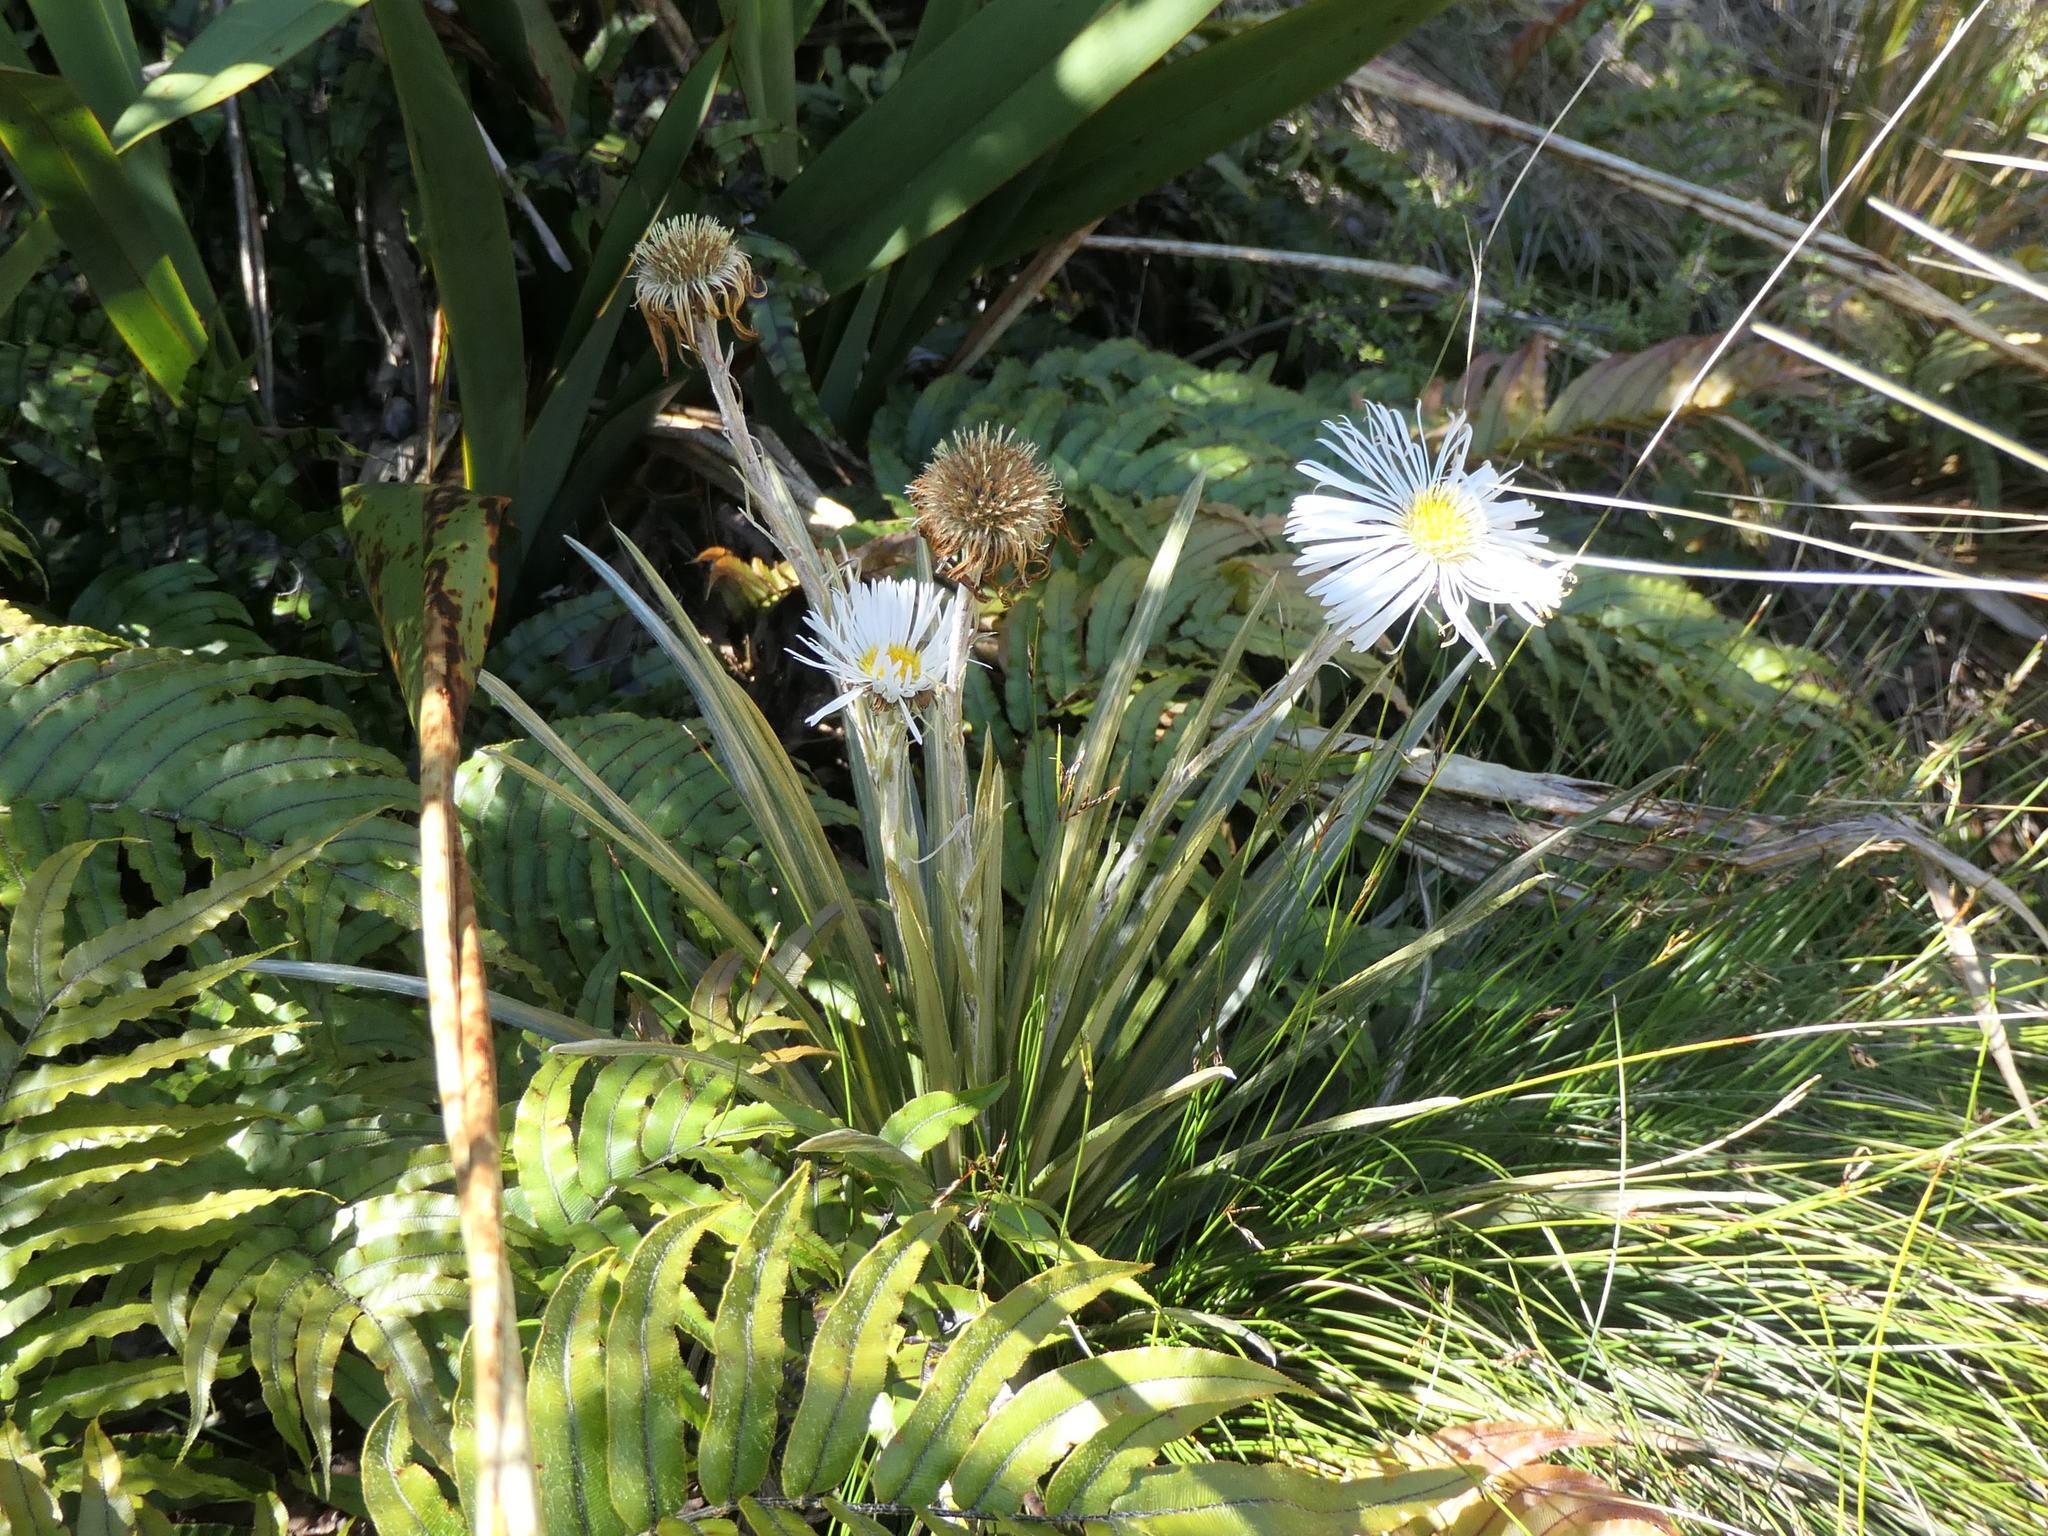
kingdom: Plantae
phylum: Tracheophyta
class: Magnoliopsida
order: Asterales
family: Asteraceae
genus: Celmisia
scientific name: Celmisia armstrongii
